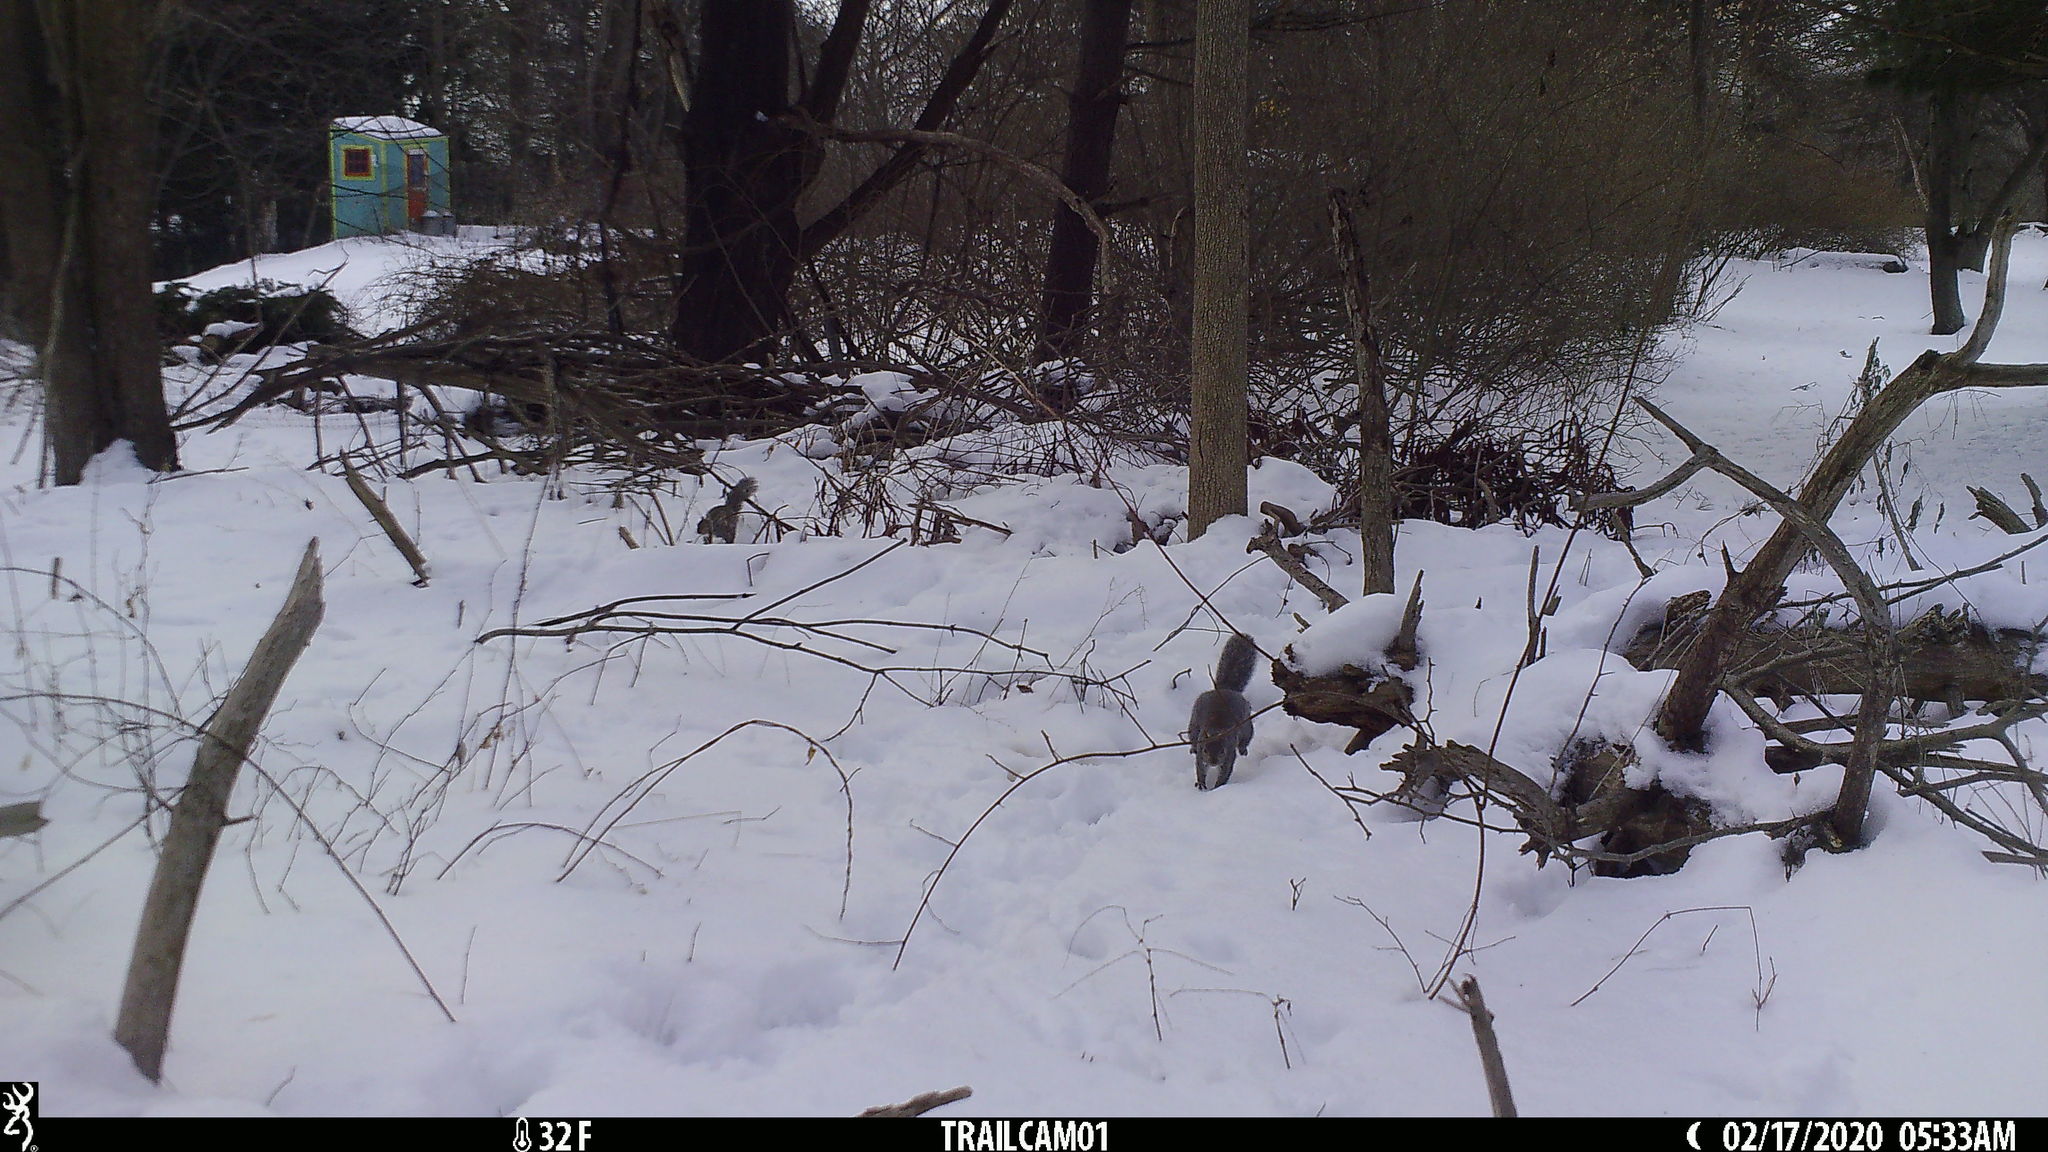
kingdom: Animalia
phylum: Chordata
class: Mammalia
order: Rodentia
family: Sciuridae
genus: Sciurus
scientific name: Sciurus carolinensis
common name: Eastern gray squirrel
